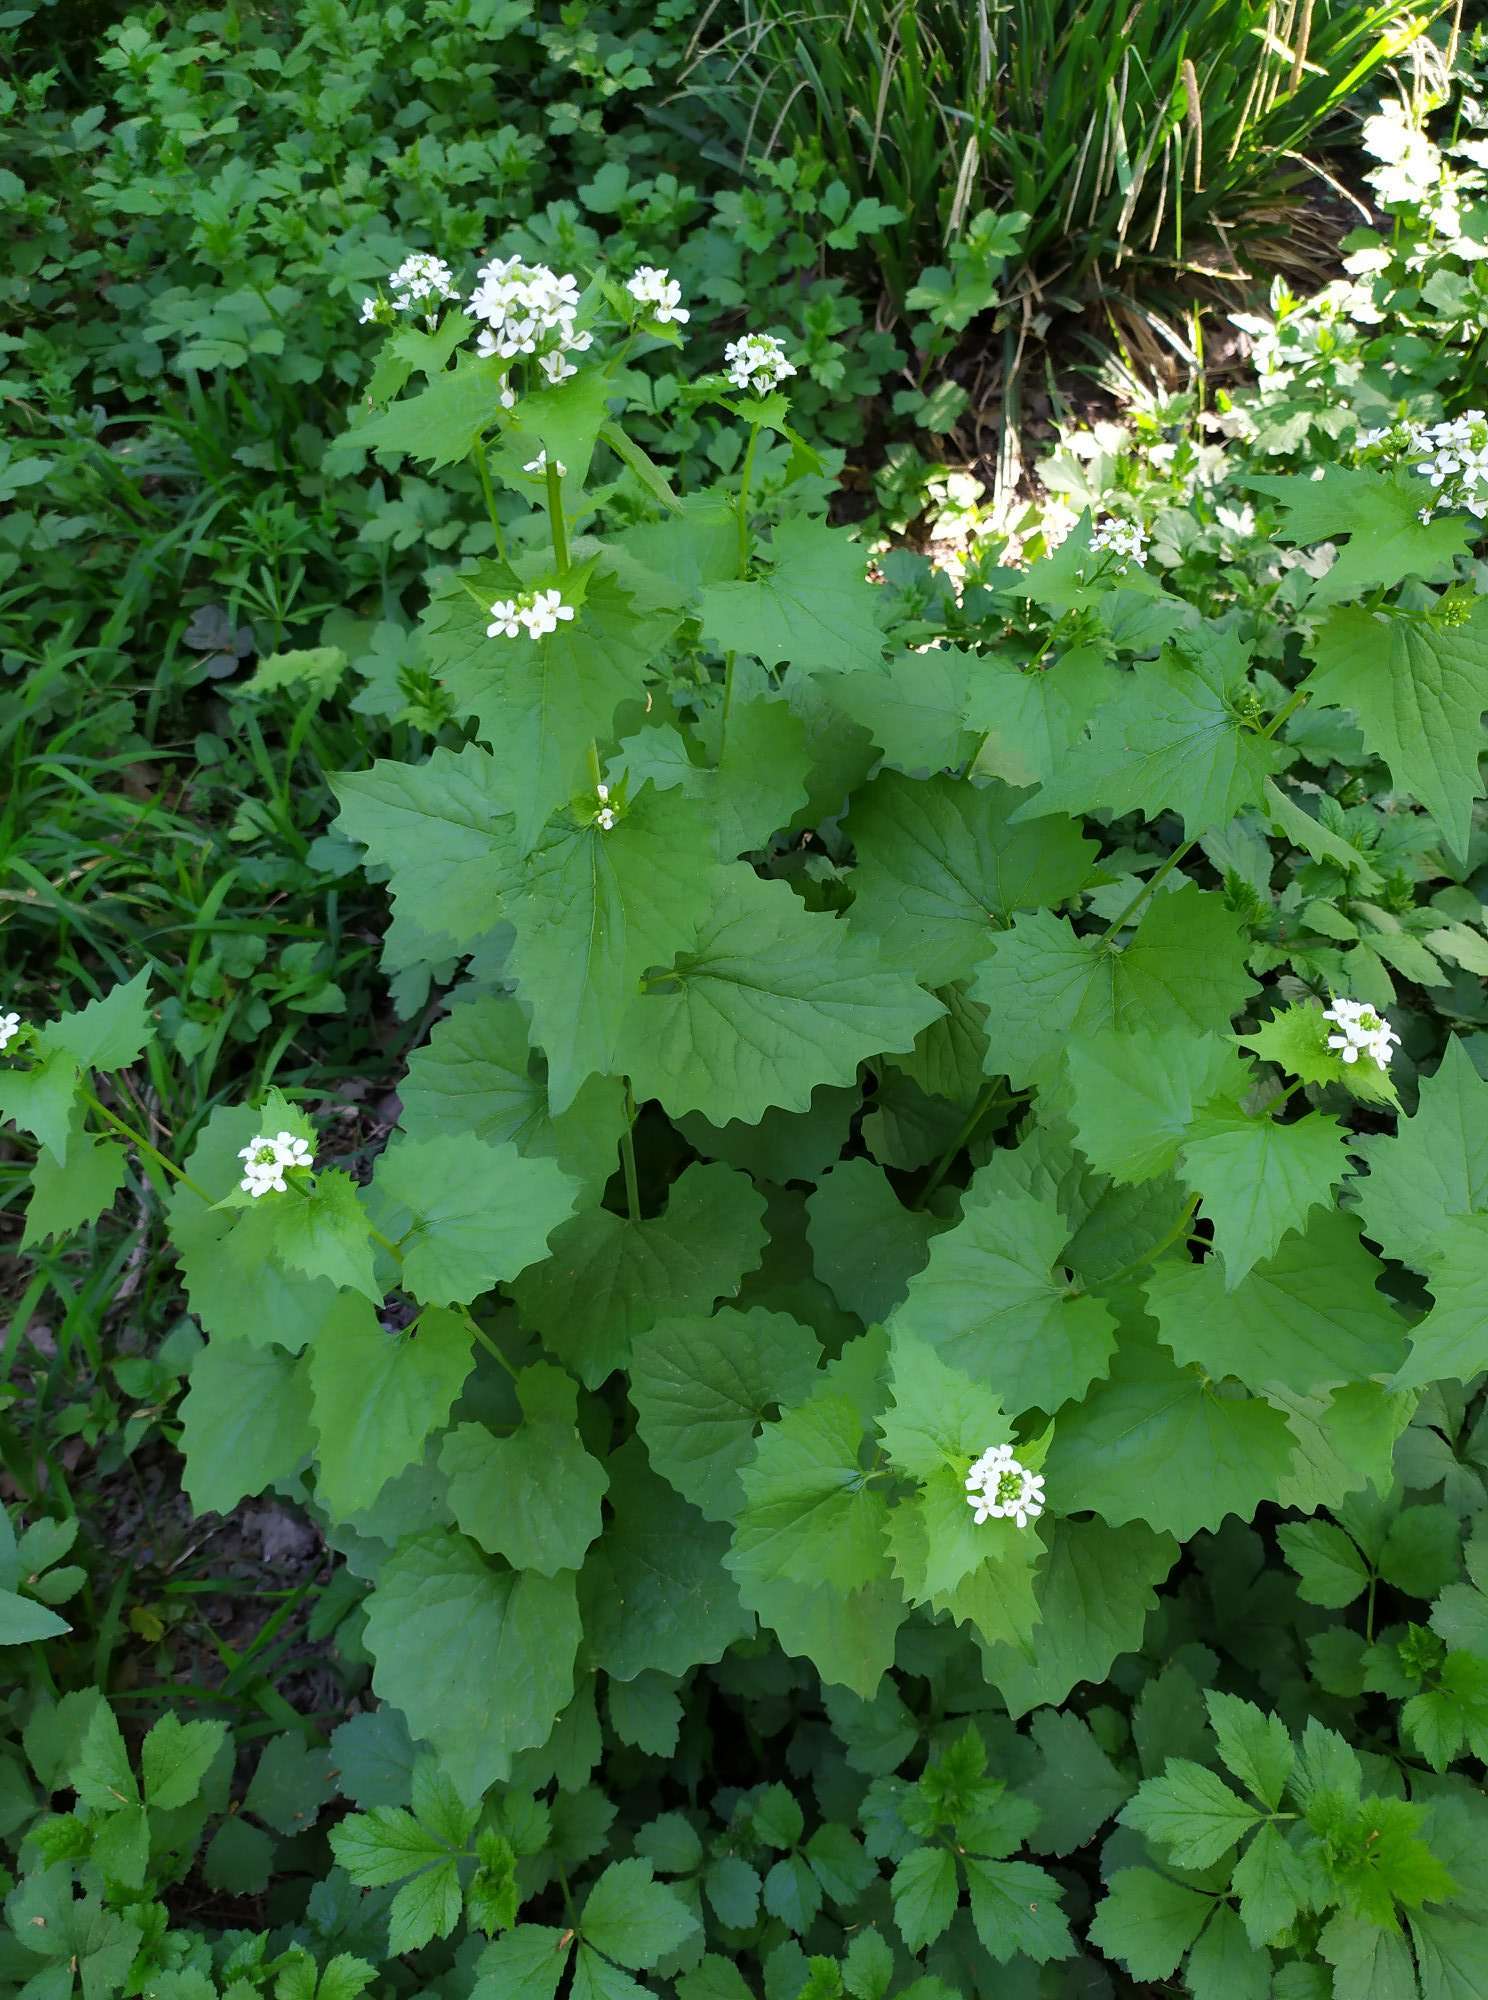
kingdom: Plantae
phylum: Tracheophyta
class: Magnoliopsida
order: Brassicales
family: Brassicaceae
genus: Alliaria
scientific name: Alliaria petiolata
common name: Garlic mustard
